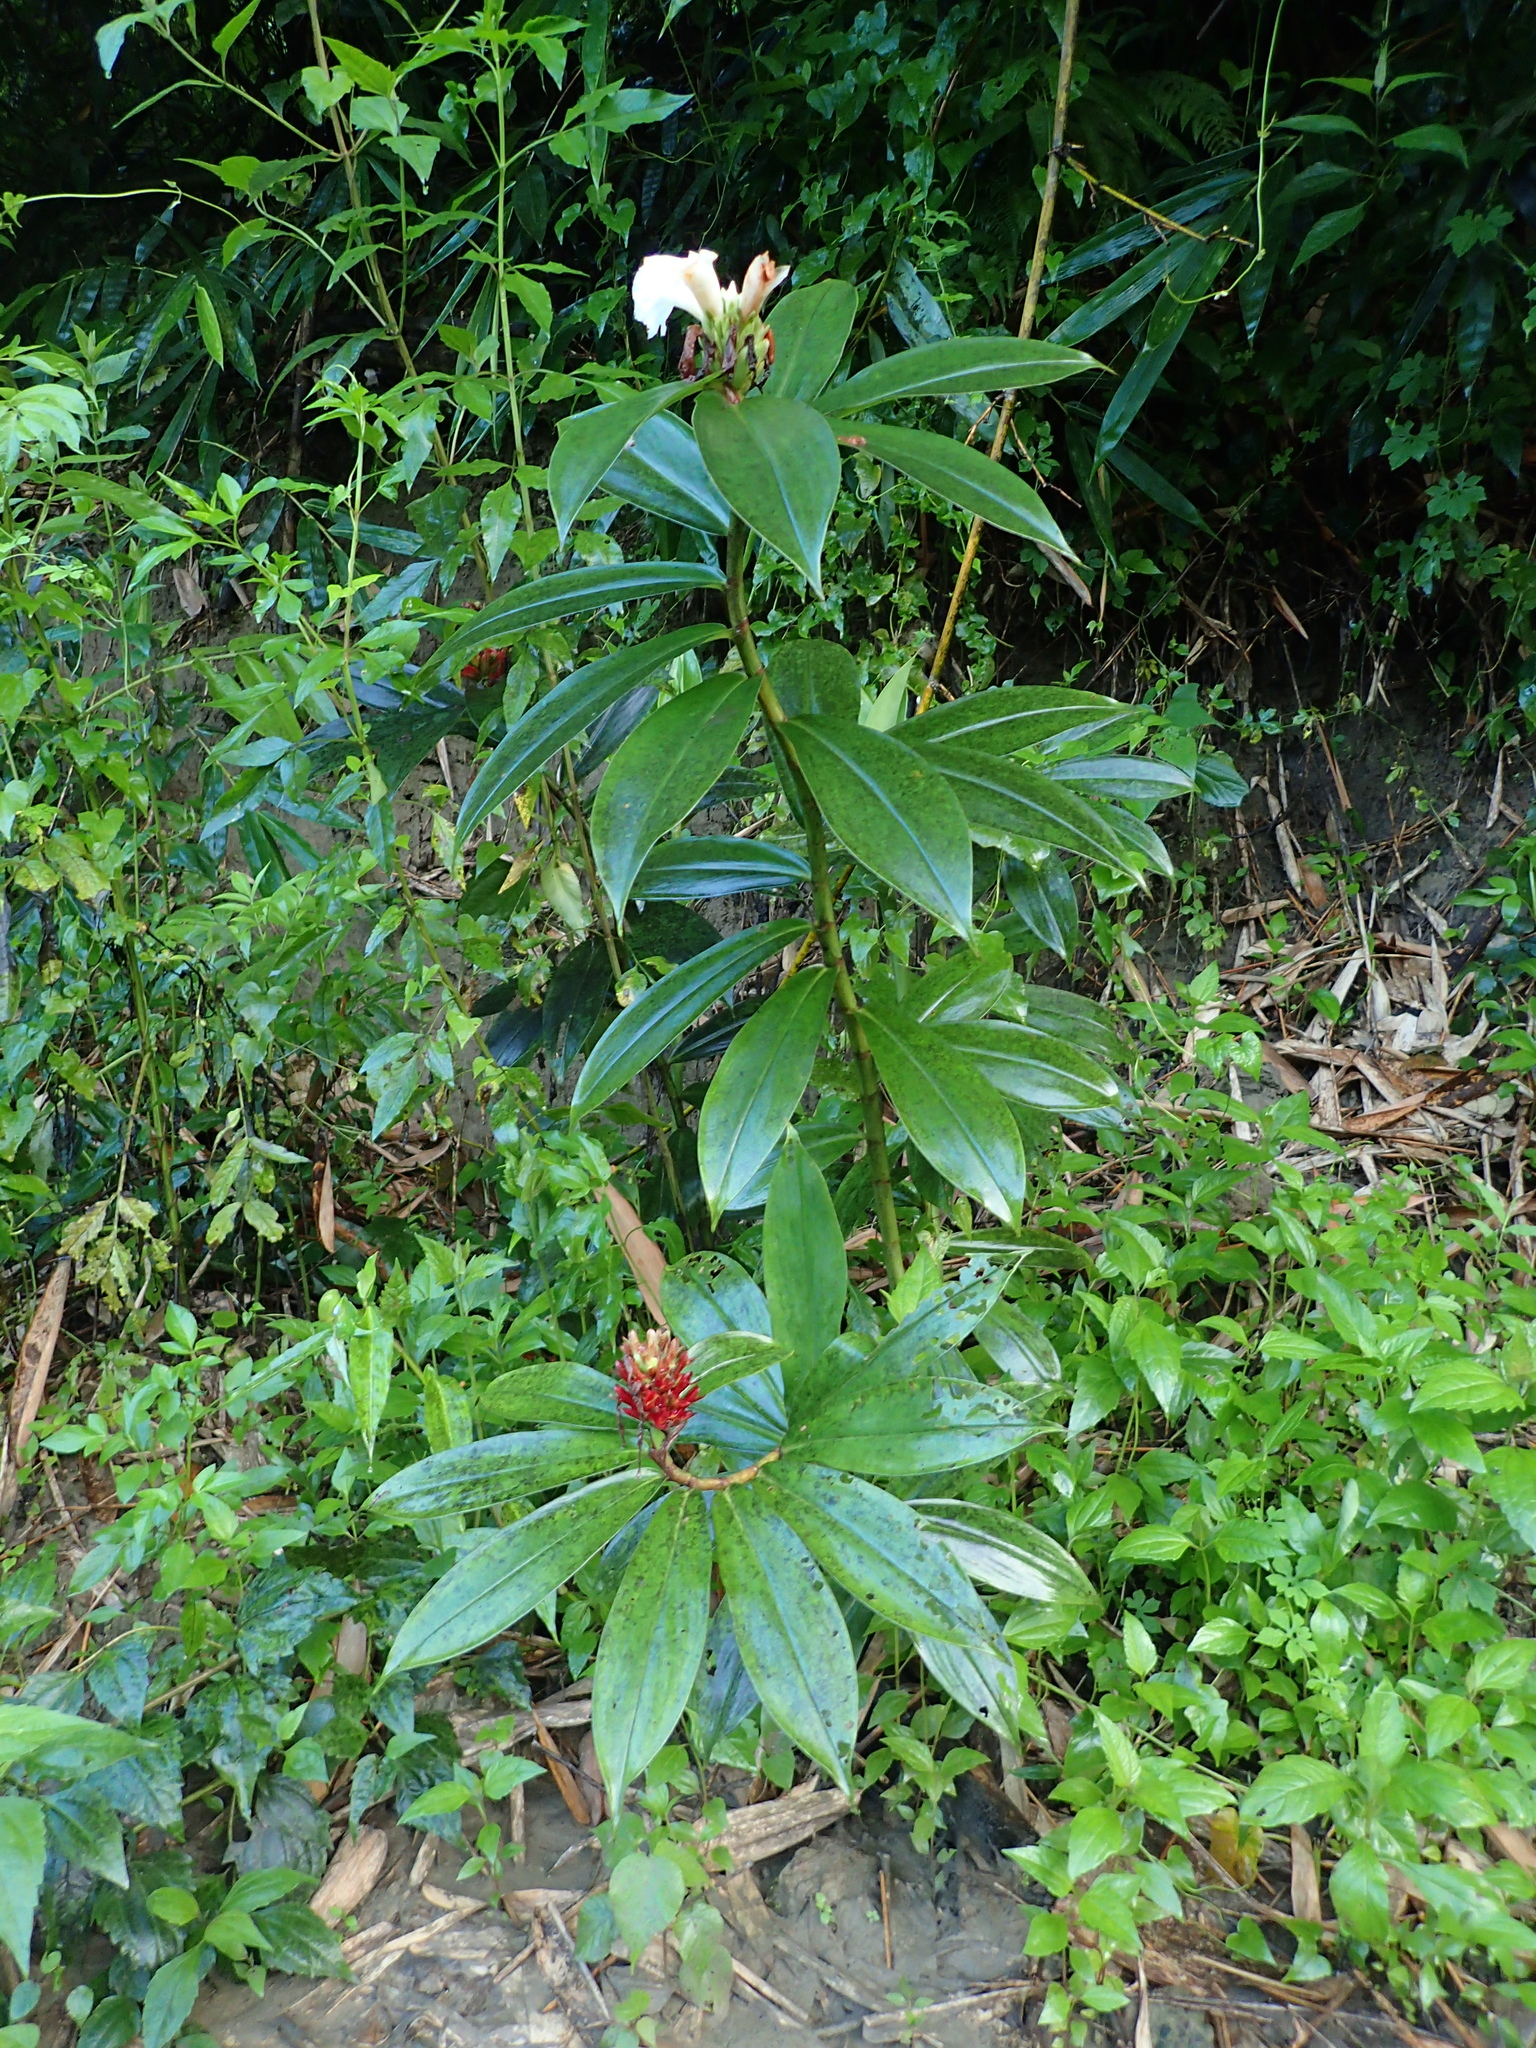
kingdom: Plantae
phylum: Tracheophyta
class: Liliopsida
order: Zingiberales
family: Costaceae
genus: Hellenia
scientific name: Hellenia speciosa
